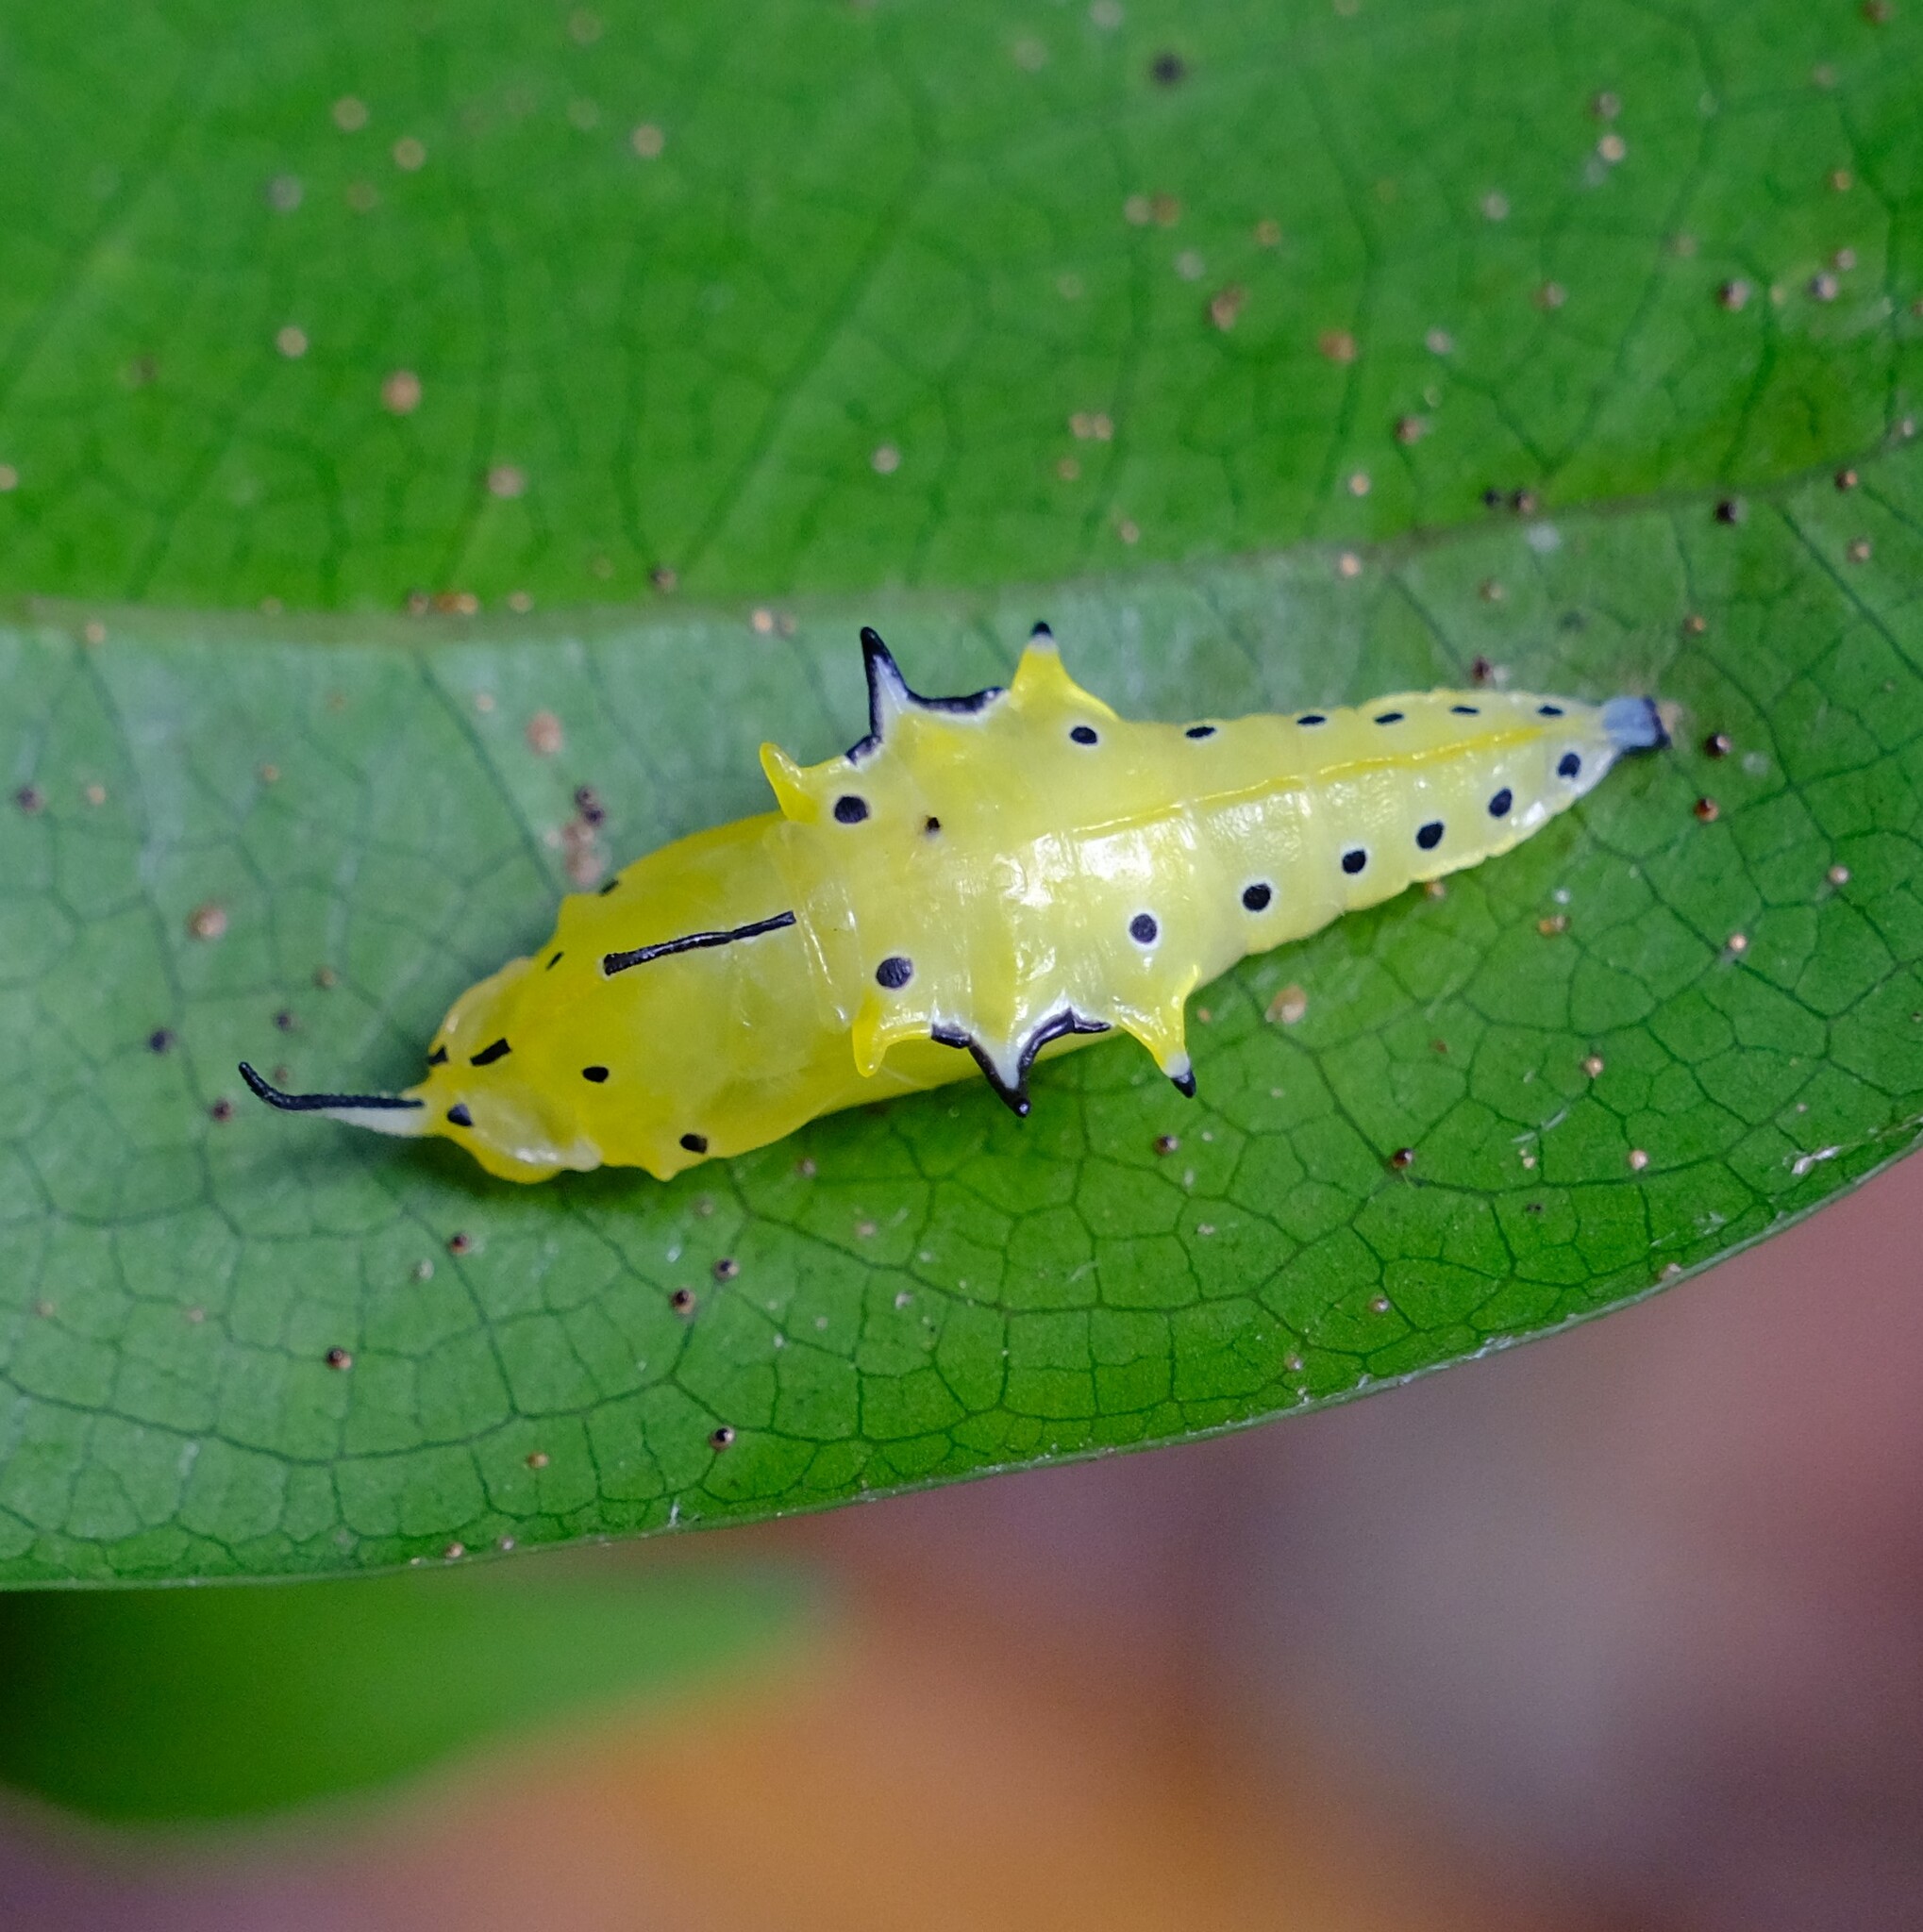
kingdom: Animalia
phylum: Arthropoda
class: Insecta
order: Lepidoptera
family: Pieridae
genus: Appias
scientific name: Appias paulina
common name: Ceylon lesser albatross
